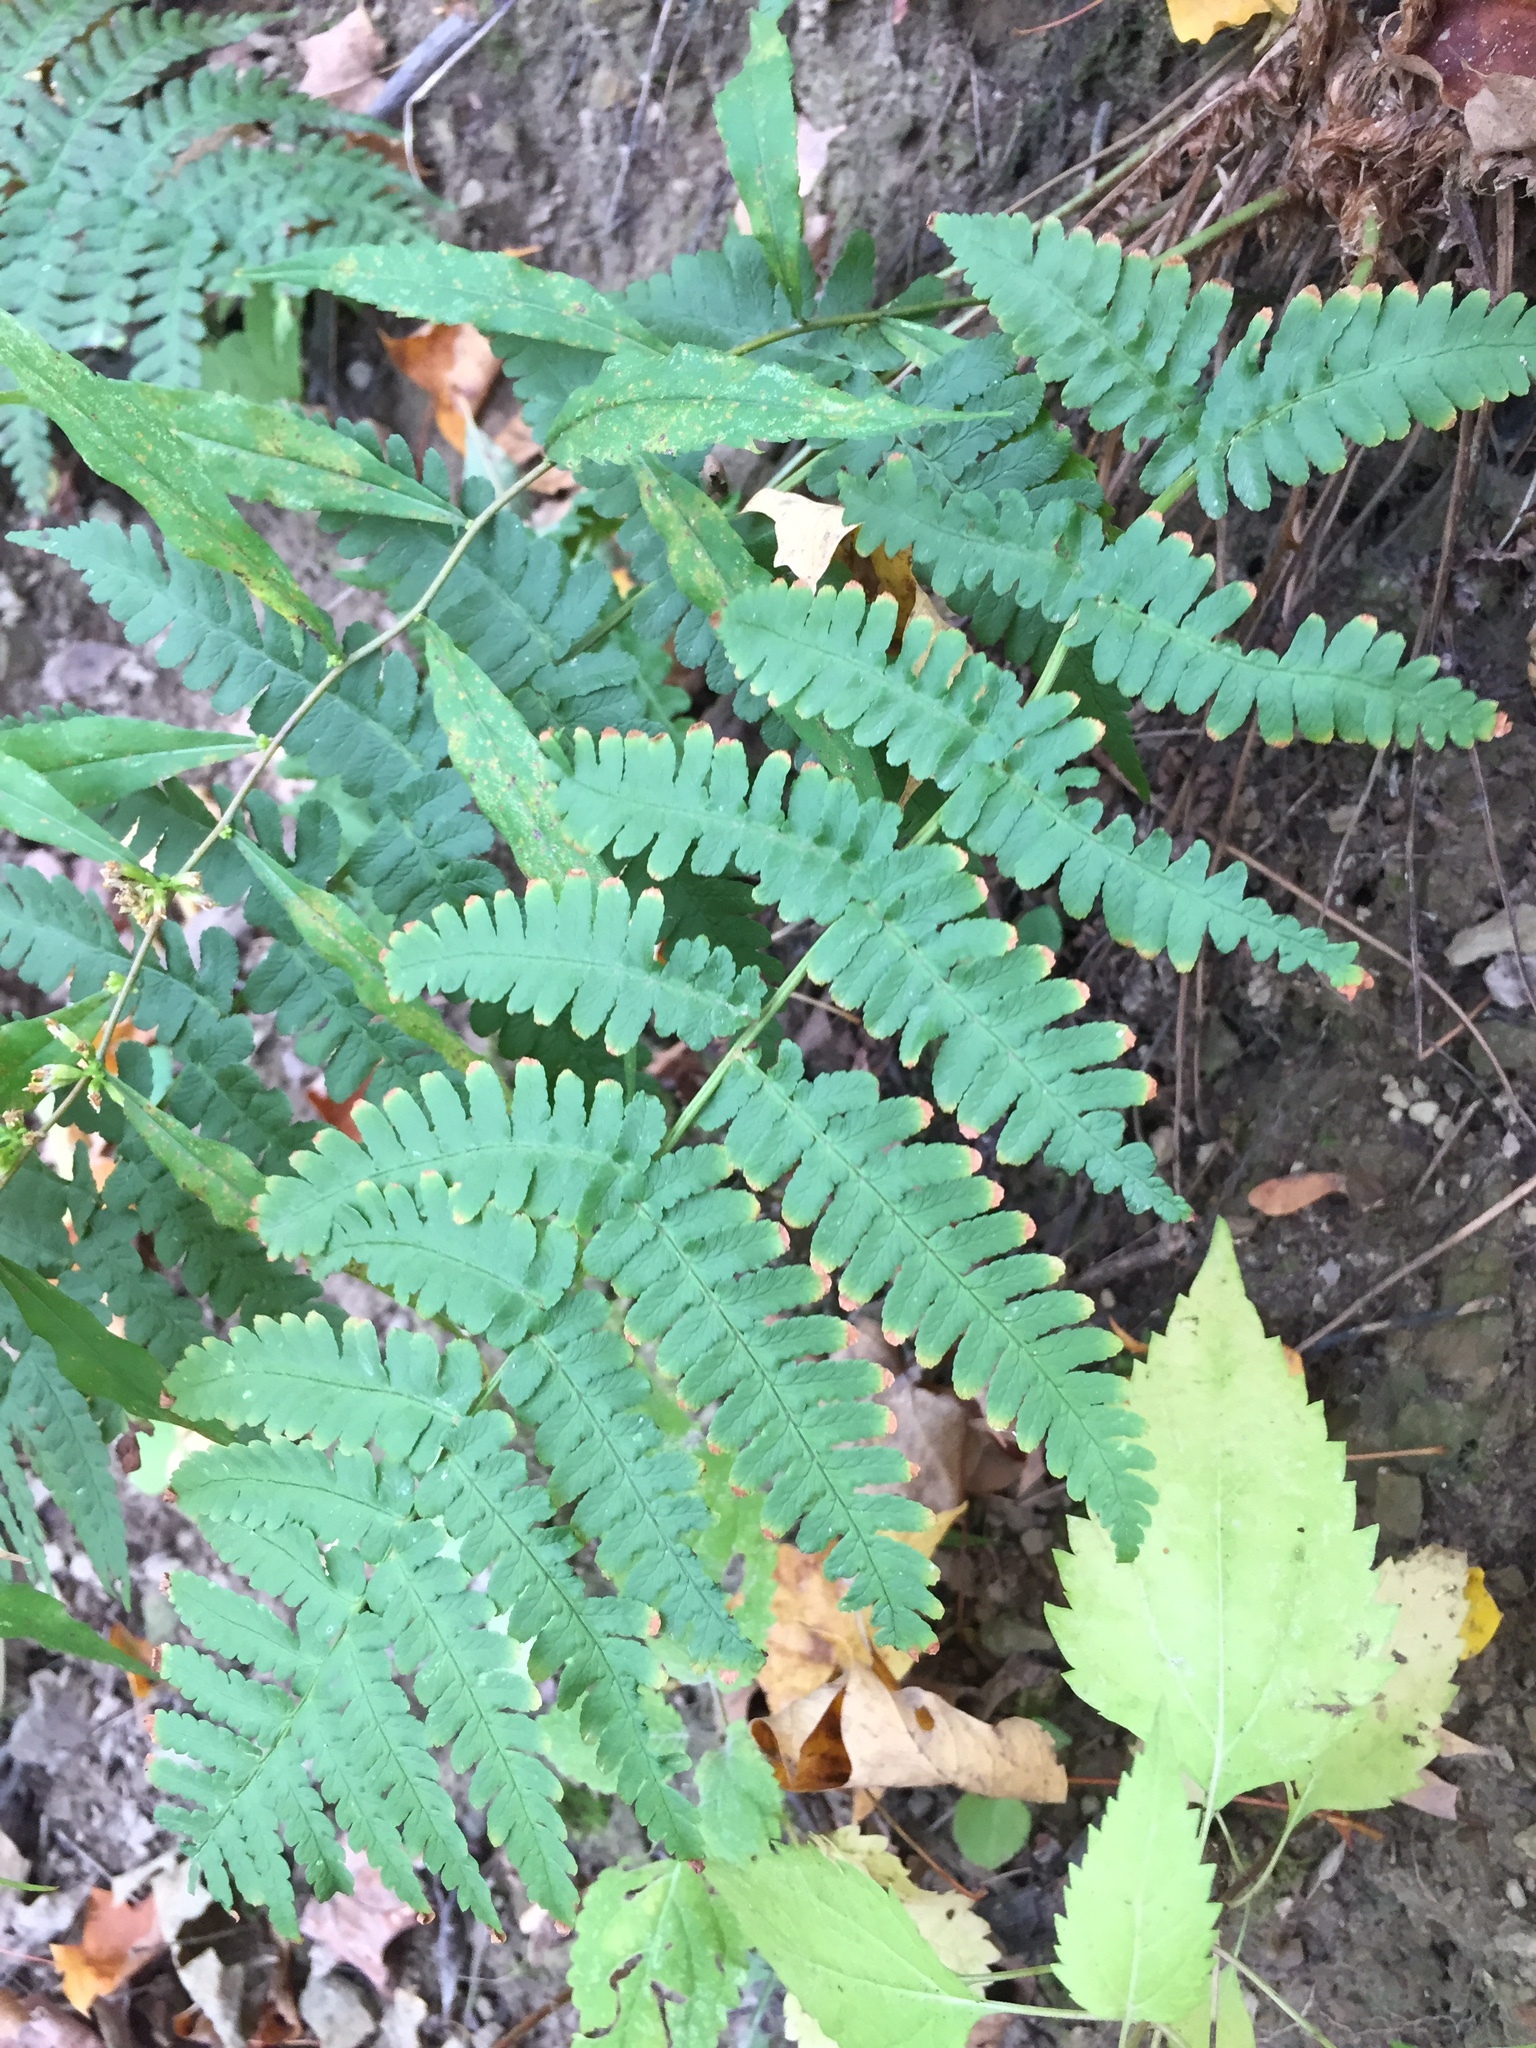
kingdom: Plantae
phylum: Tracheophyta
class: Polypodiopsida
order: Polypodiales
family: Dryopteridaceae
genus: Dryopteris
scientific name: Dryopteris marginalis
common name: Marginal wood fern
